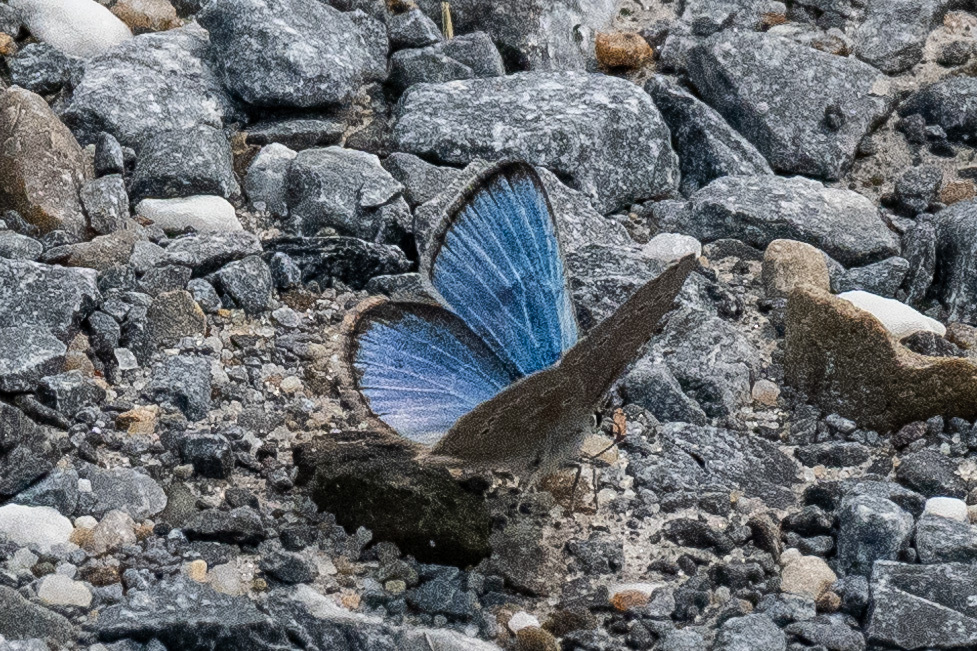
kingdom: Animalia
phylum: Arthropoda
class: Insecta
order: Lepidoptera
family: Lycaenidae
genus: Glaucopsyche
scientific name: Glaucopsyche lygdamus
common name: Silvery blue
